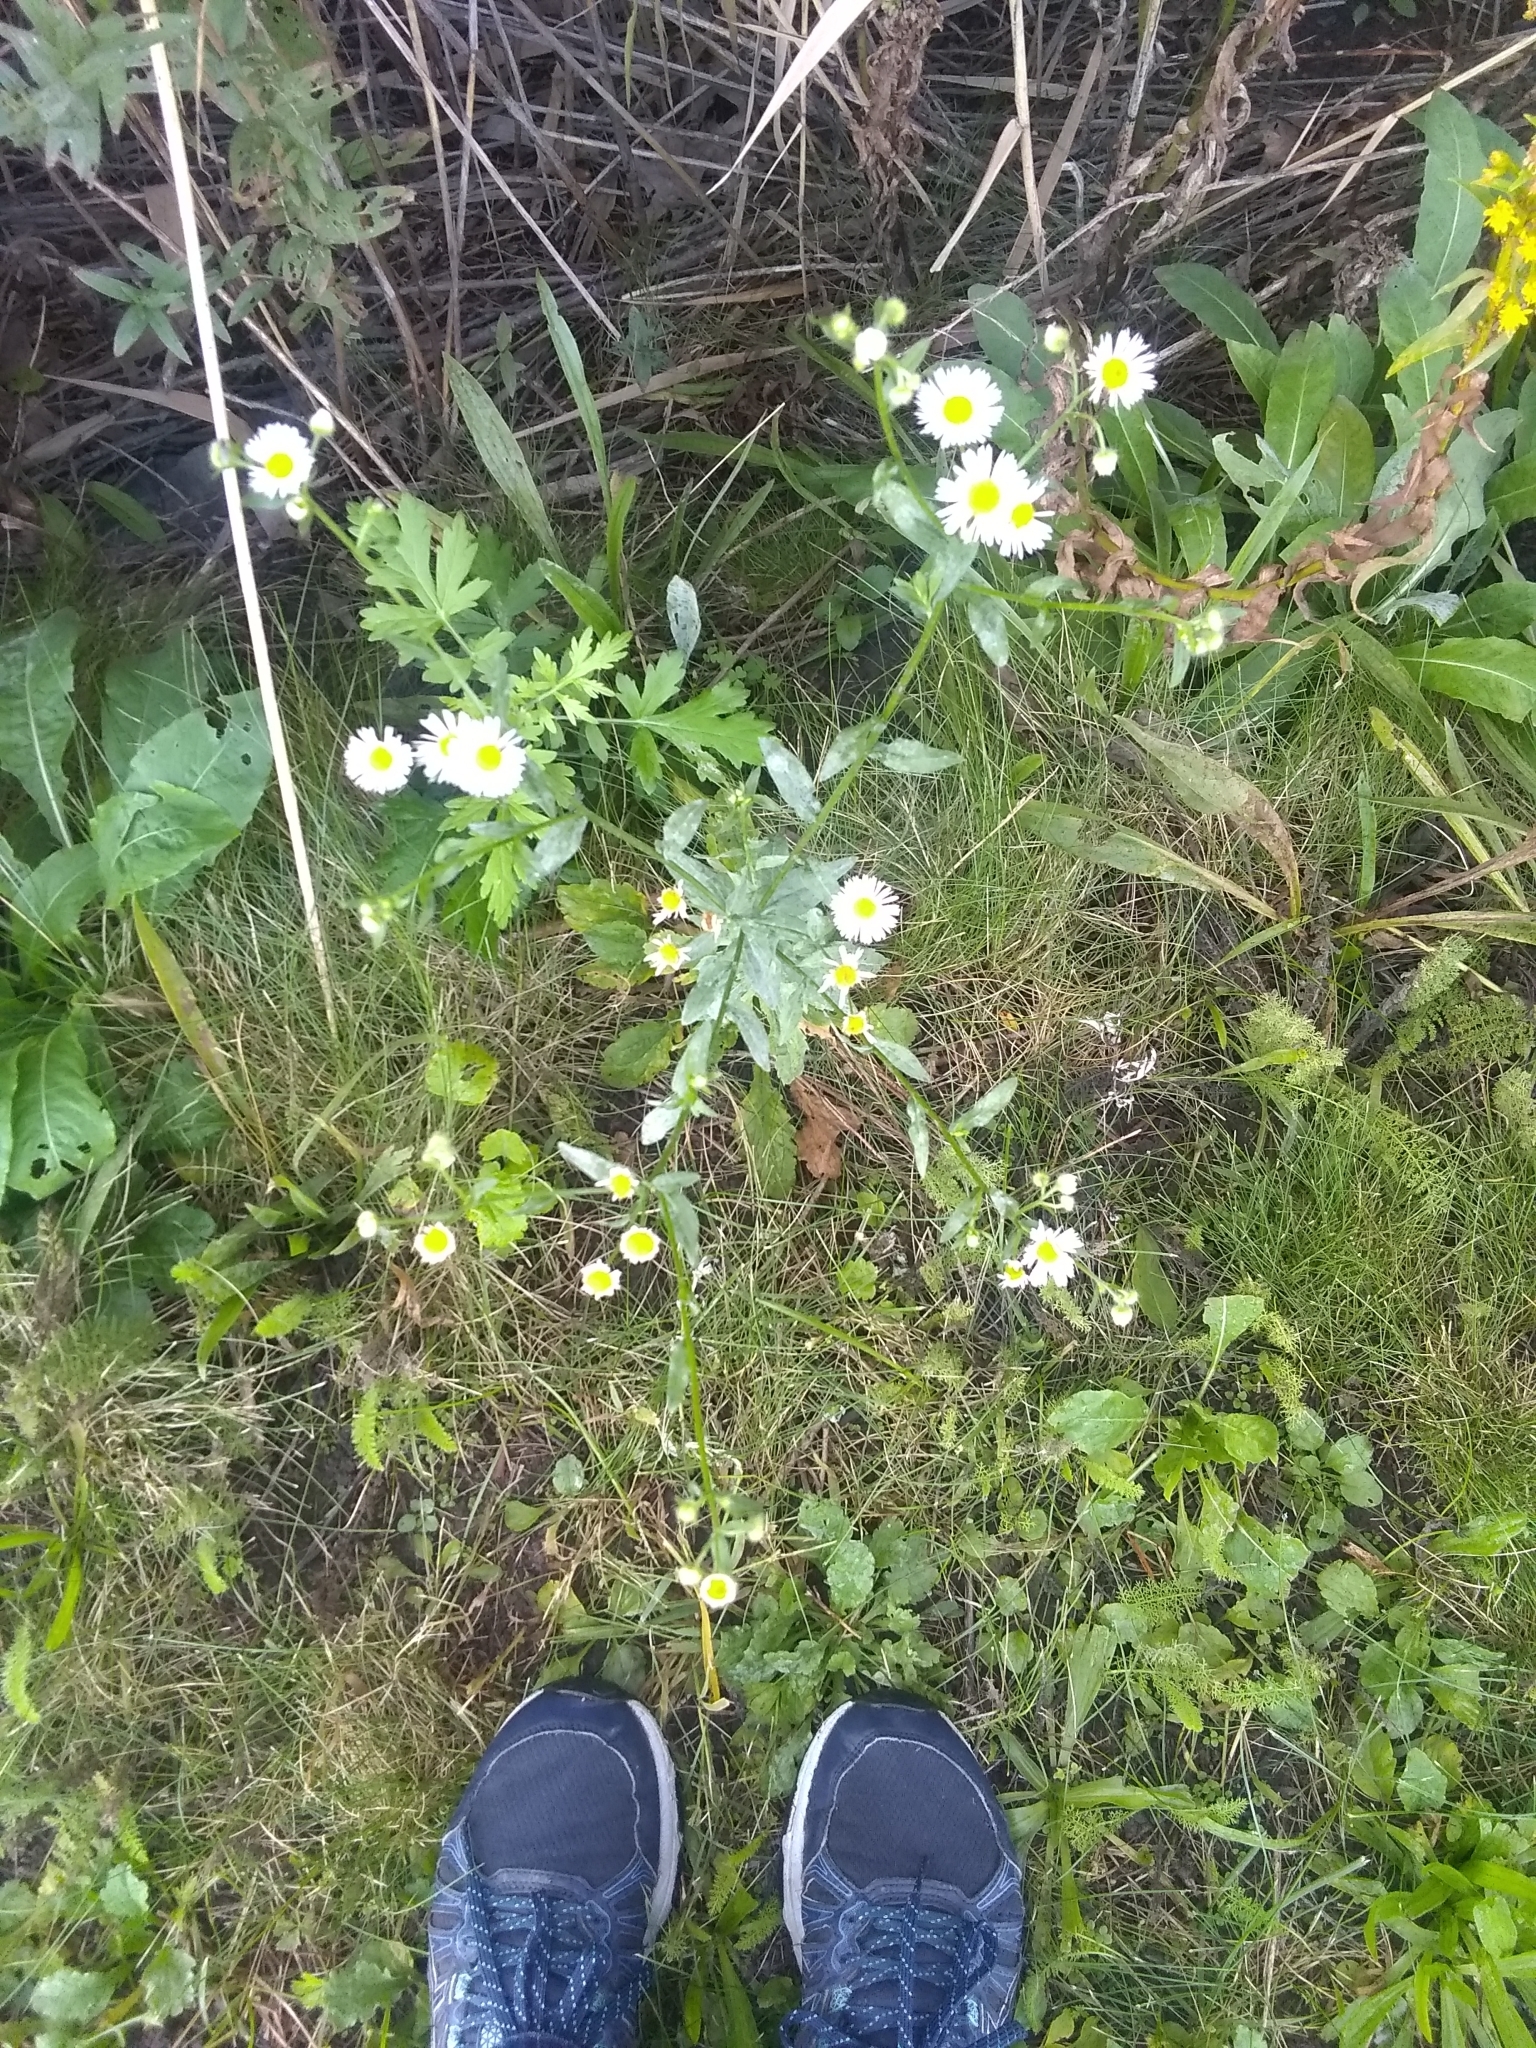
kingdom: Plantae
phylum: Tracheophyta
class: Magnoliopsida
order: Asterales
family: Asteraceae
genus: Erigeron
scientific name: Erigeron strigosus
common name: Common eastern fleabane
